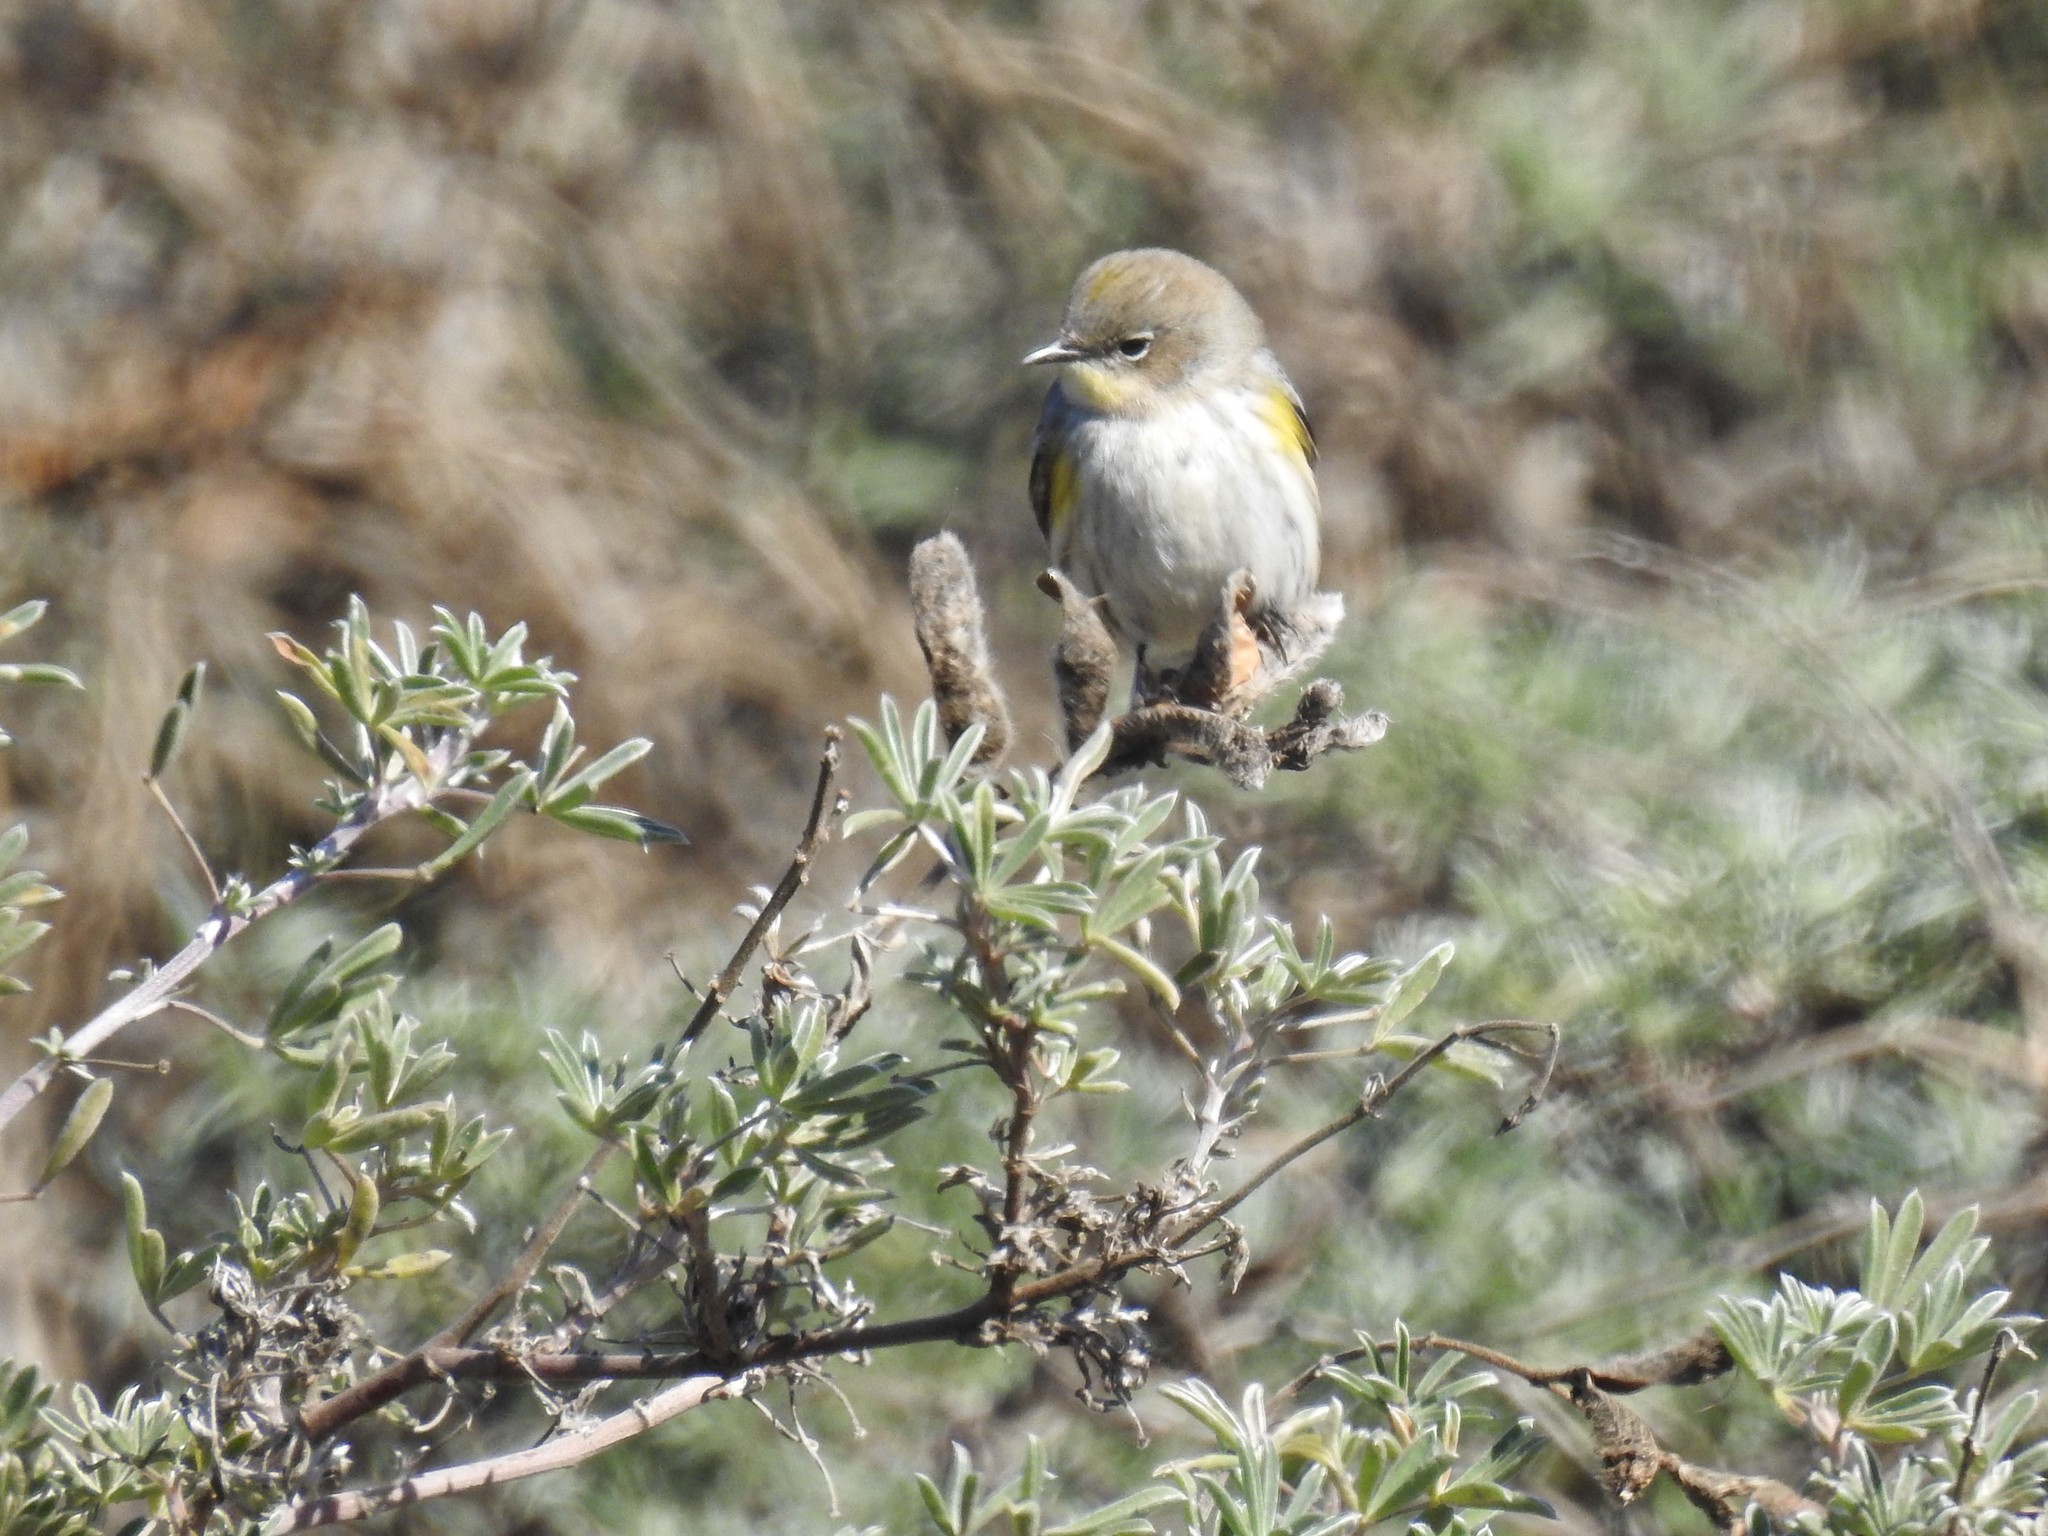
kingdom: Animalia
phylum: Chordata
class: Aves
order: Passeriformes
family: Parulidae
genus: Setophaga
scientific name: Setophaga coronata
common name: Myrtle warbler
